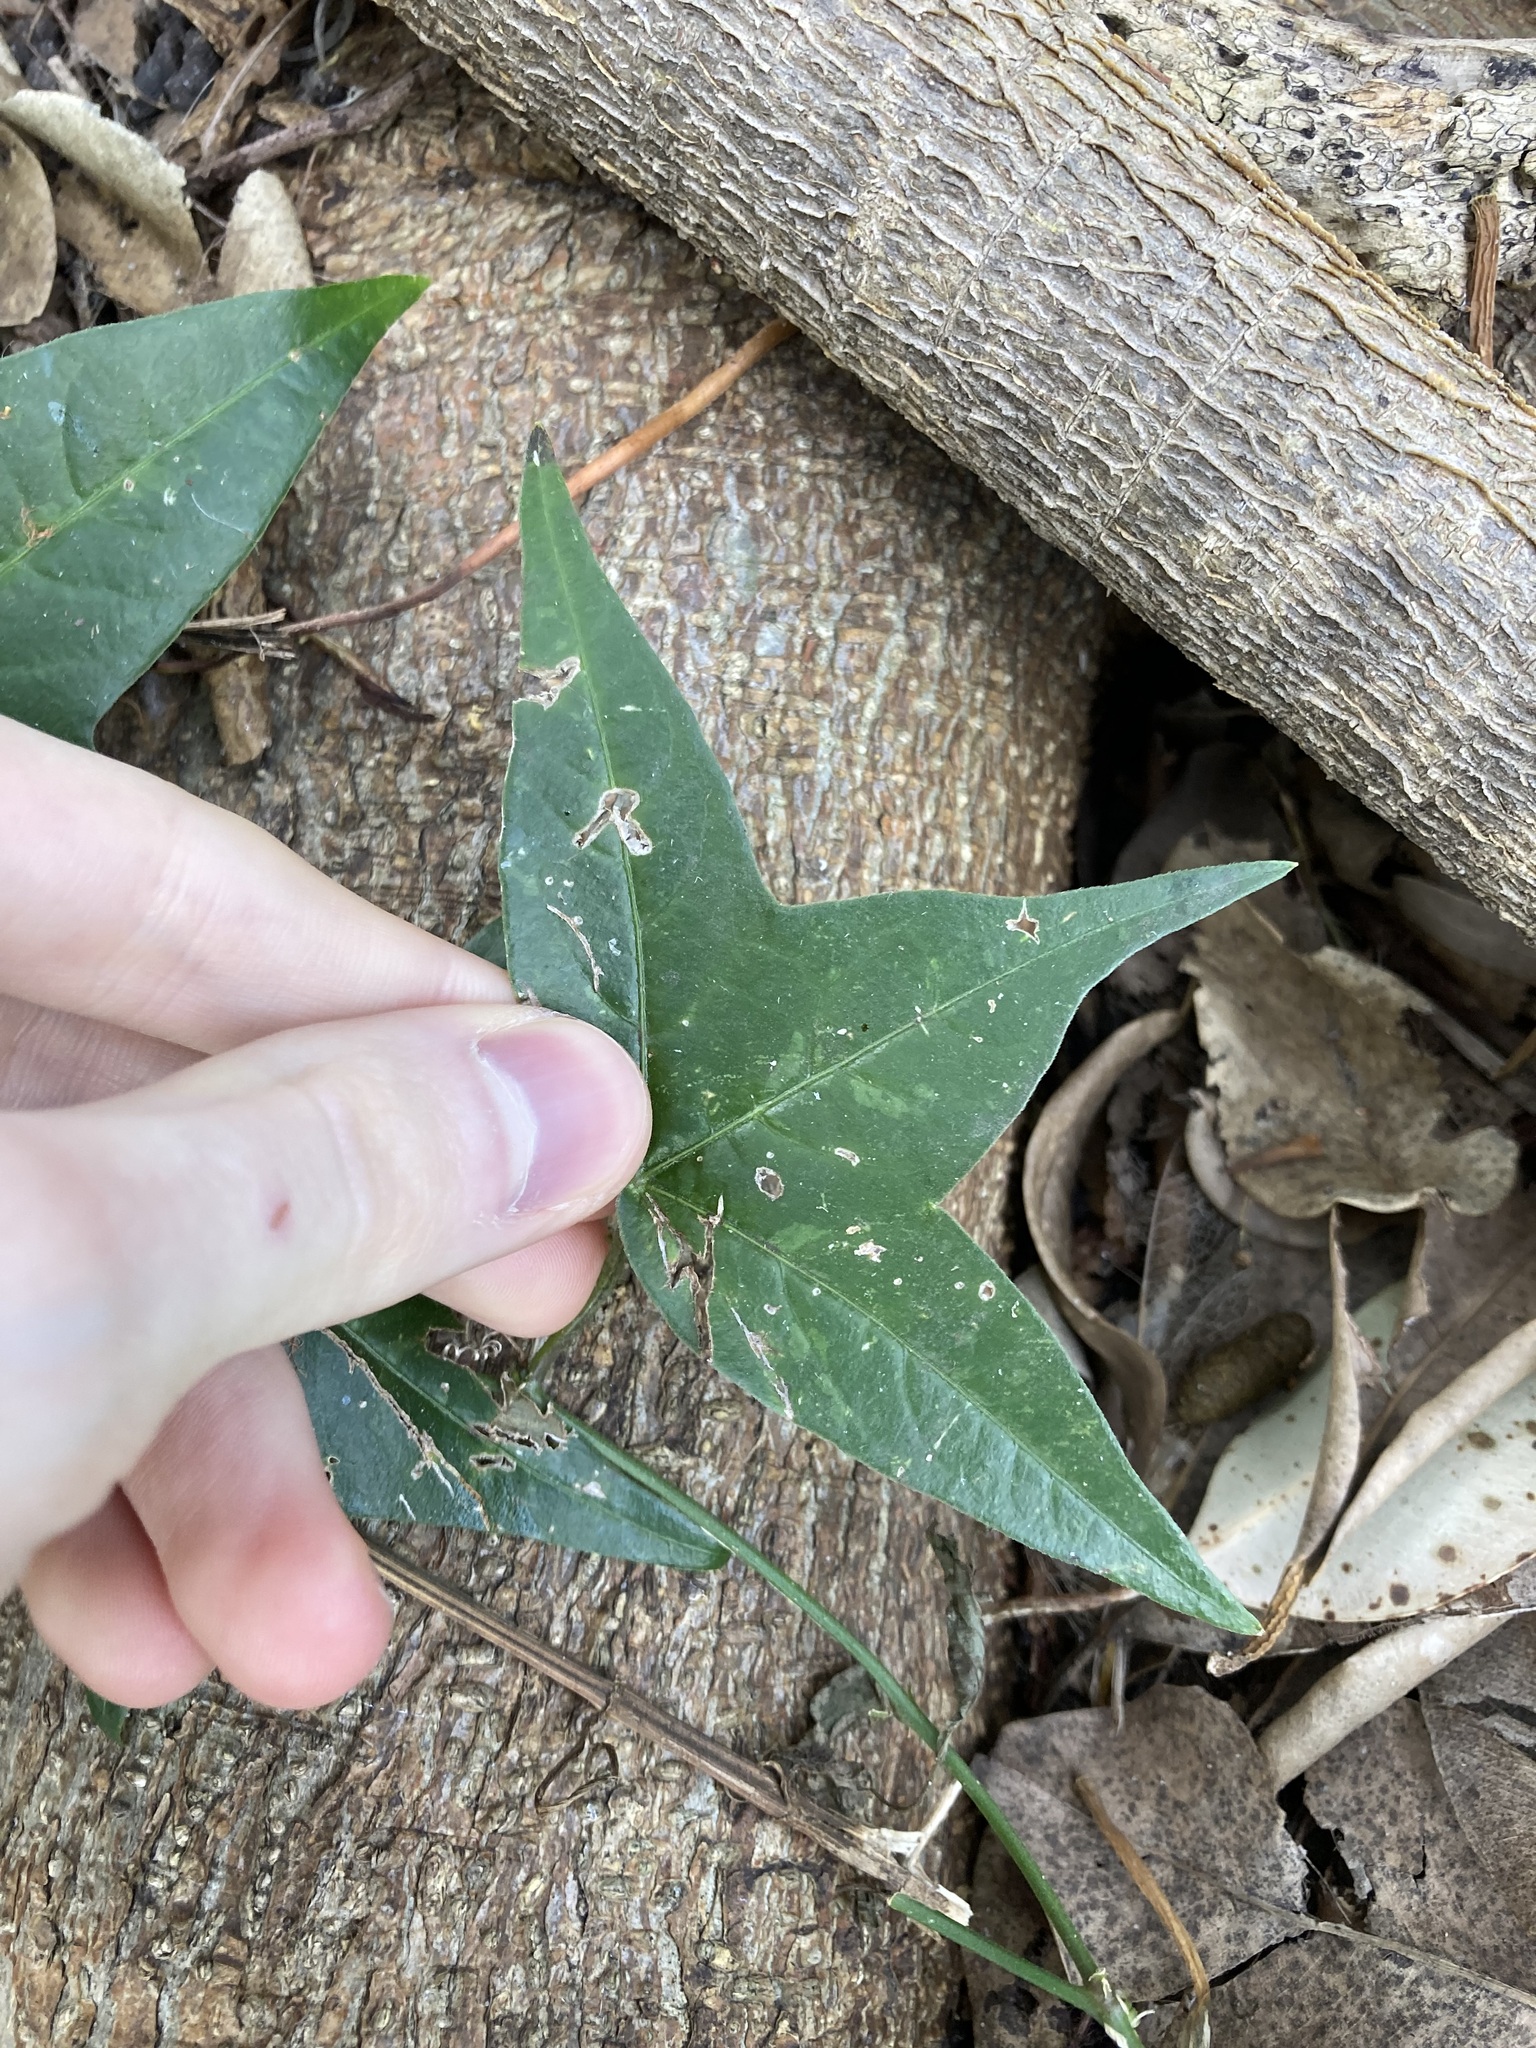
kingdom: Plantae
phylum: Tracheophyta
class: Magnoliopsida
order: Malpighiales
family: Passifloraceae
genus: Passiflora
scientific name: Passiflora suberosa
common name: Wild passionfruit
